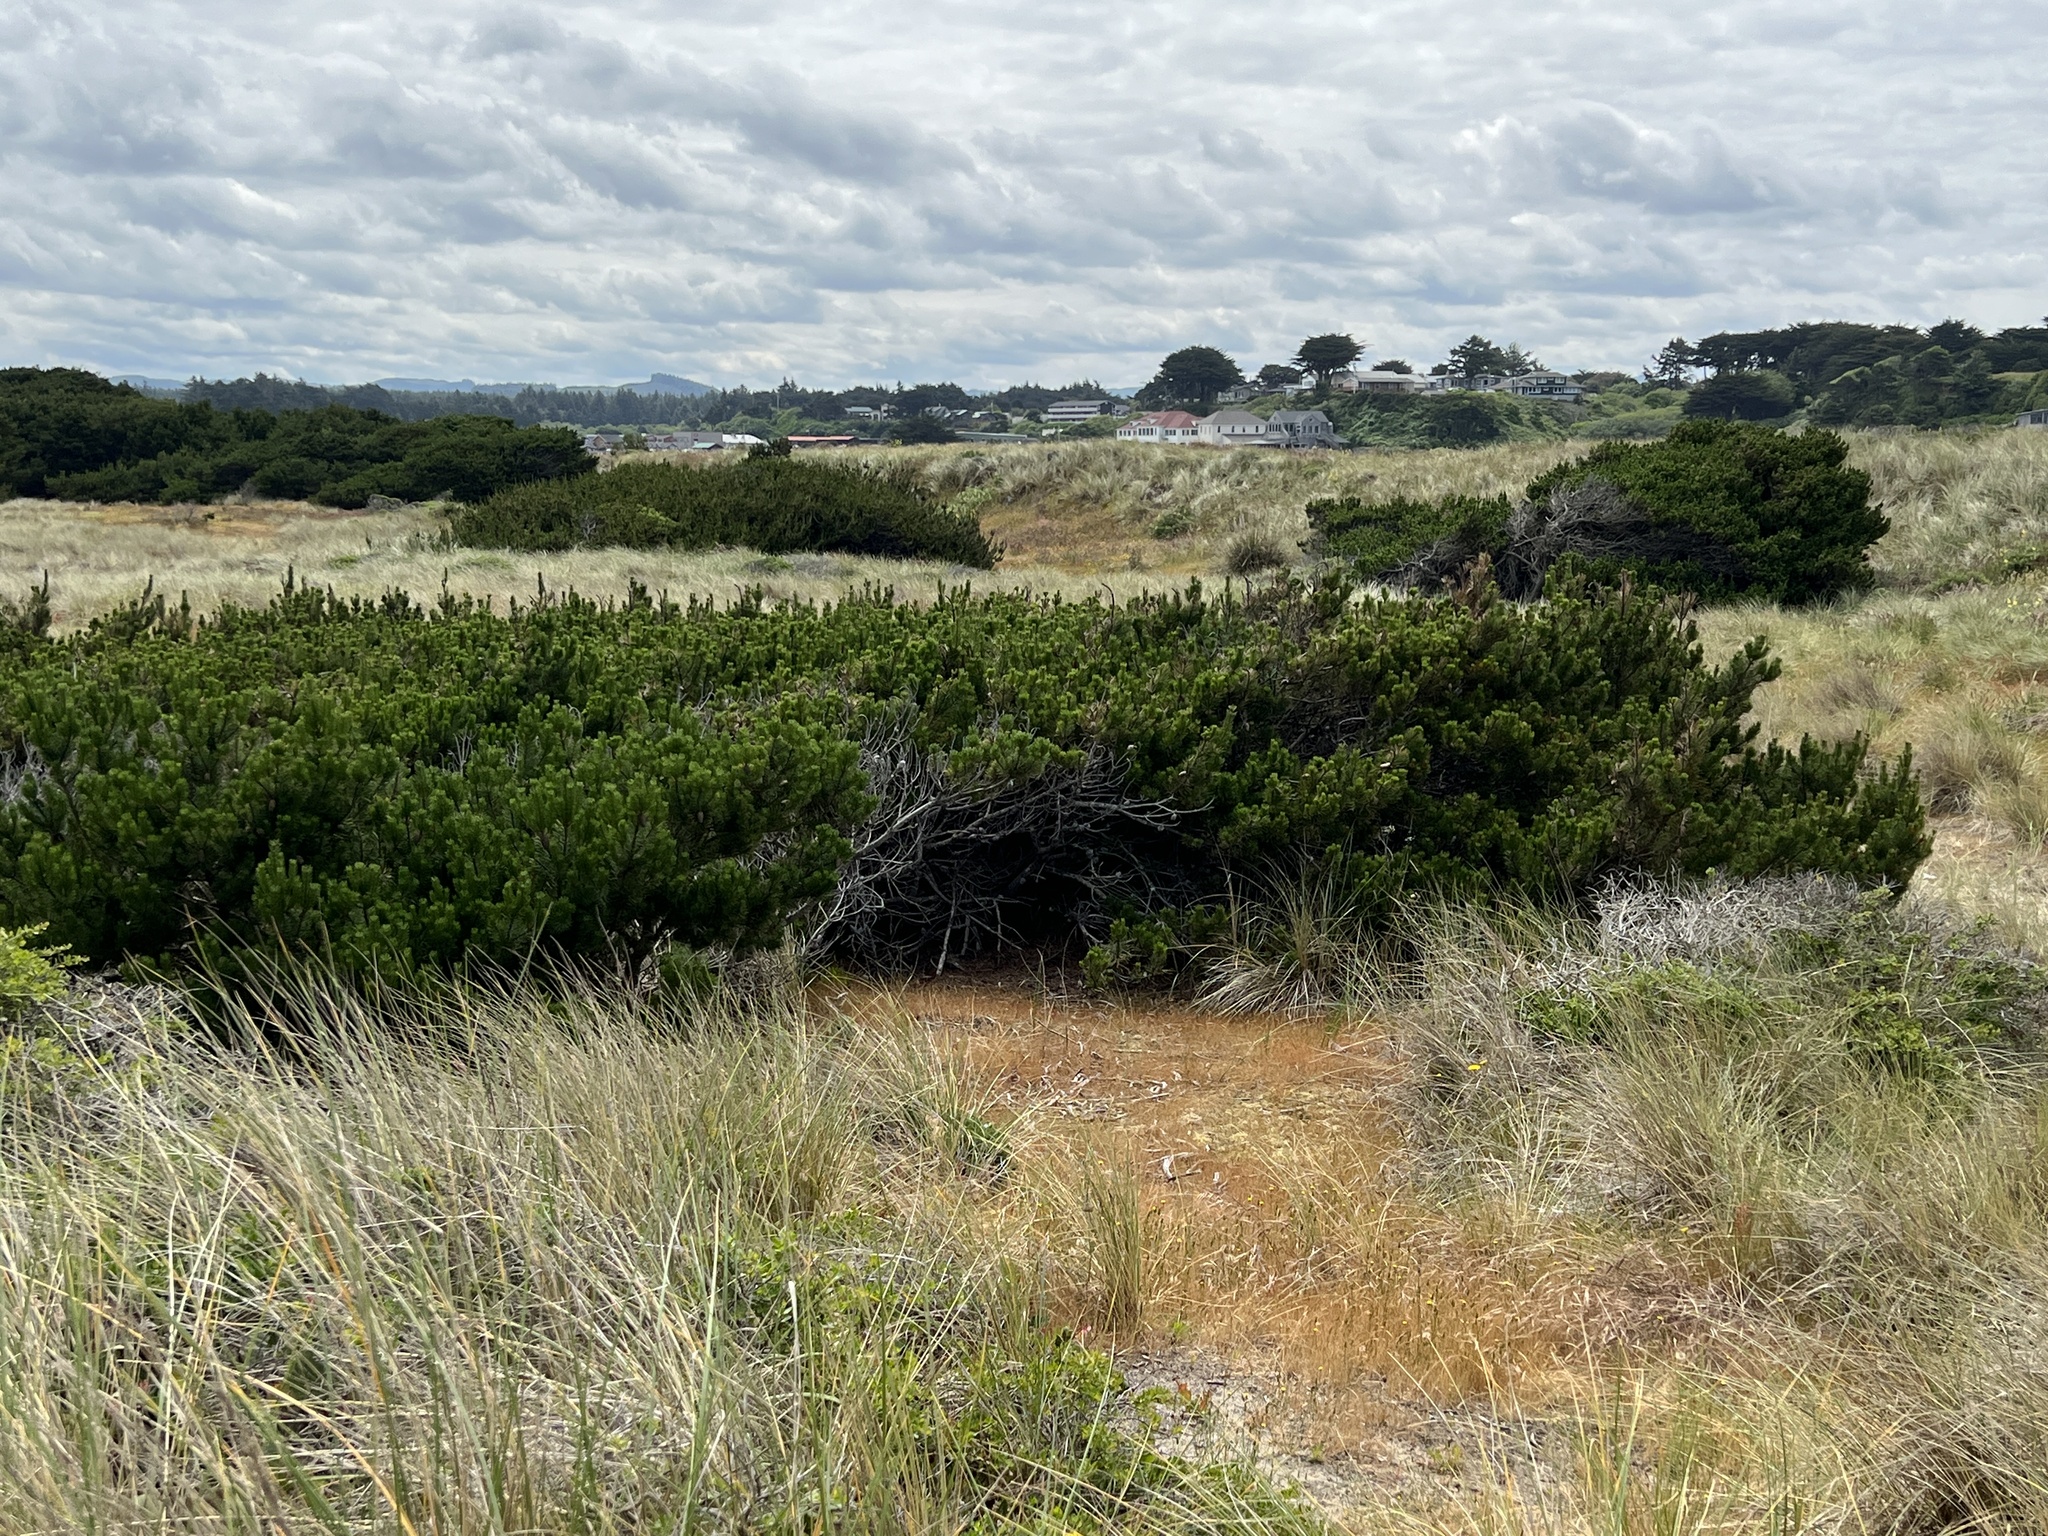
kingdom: Plantae
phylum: Tracheophyta
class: Pinopsida
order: Pinales
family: Pinaceae
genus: Pinus
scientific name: Pinus contorta
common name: Lodgepole pine
